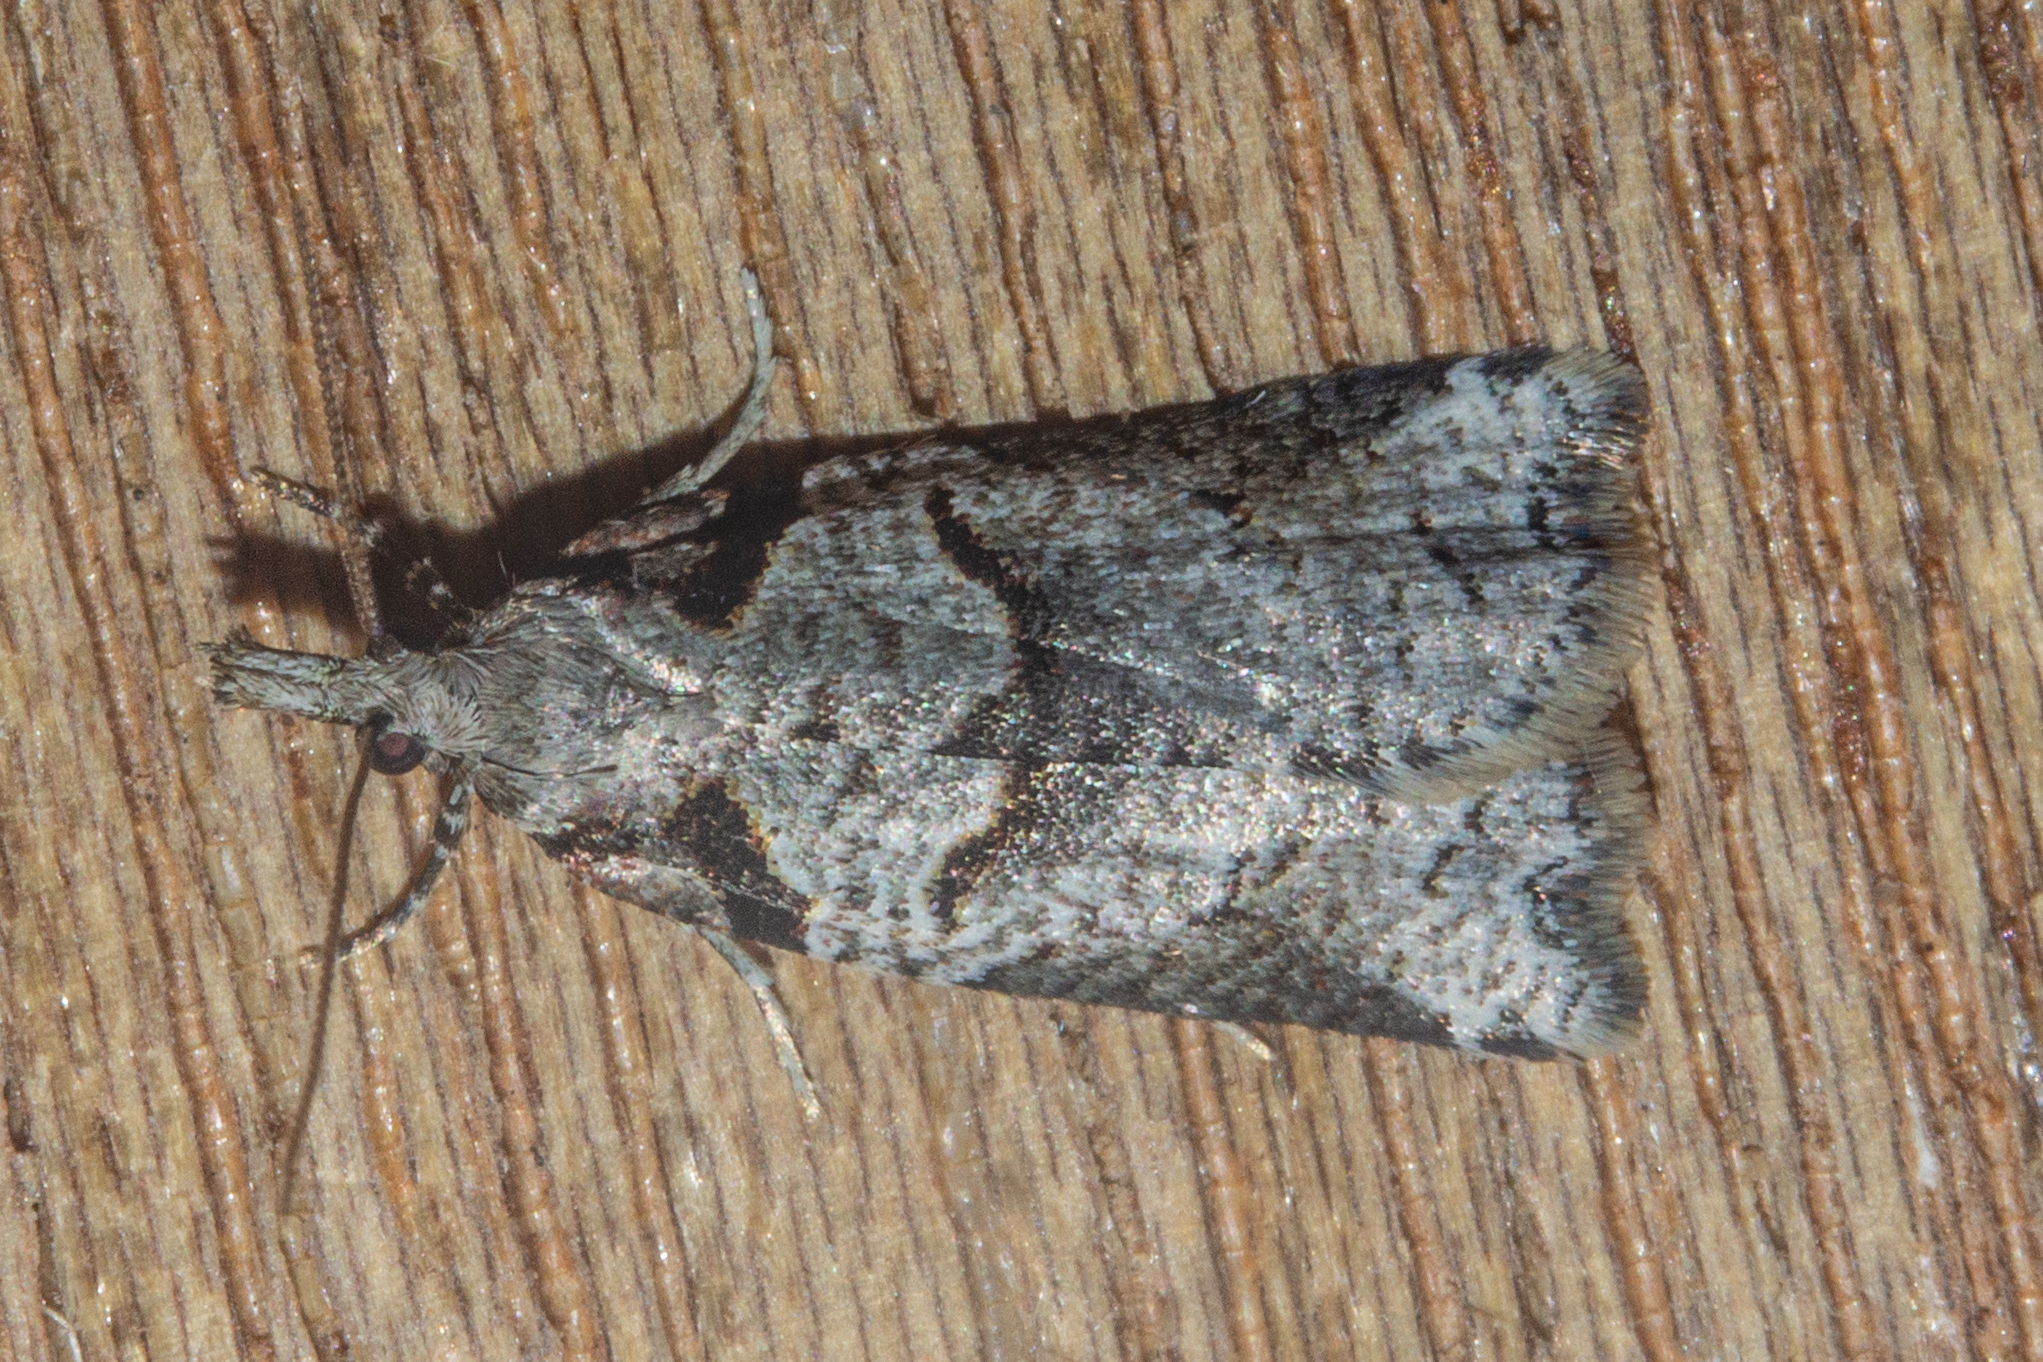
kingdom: Animalia
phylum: Arthropoda
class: Insecta
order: Lepidoptera
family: Tortricidae
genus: Harmologa
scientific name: Harmologa amplexana
